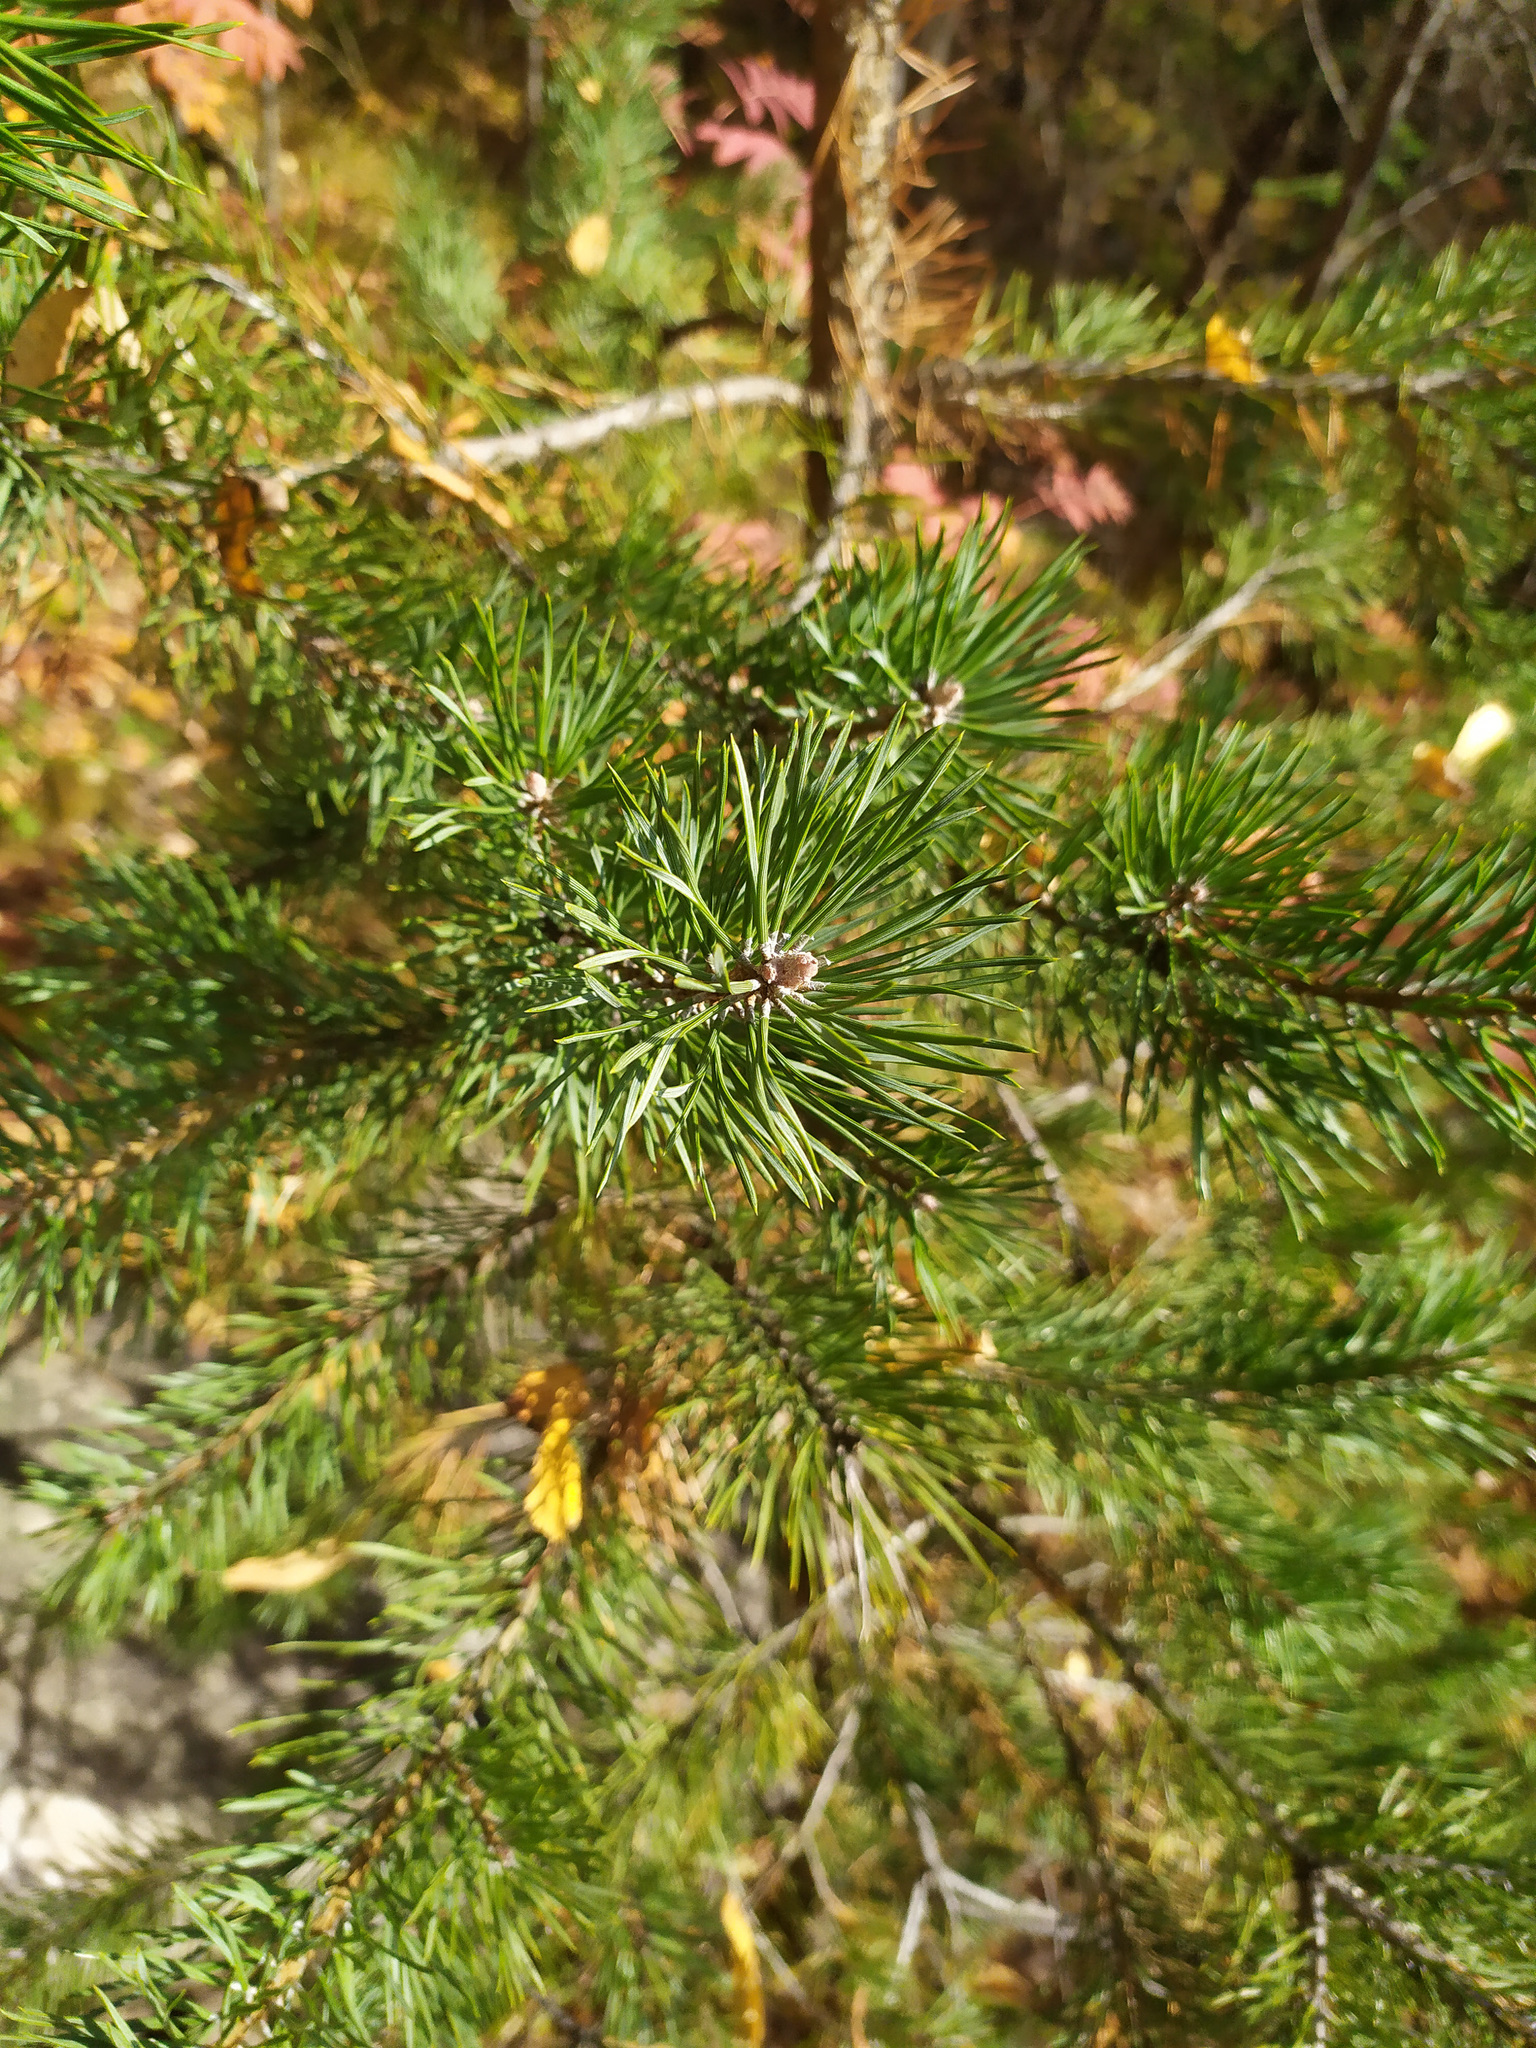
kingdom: Plantae
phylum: Tracheophyta
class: Pinopsida
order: Pinales
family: Pinaceae
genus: Pinus
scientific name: Pinus sylvestris
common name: Scots pine
